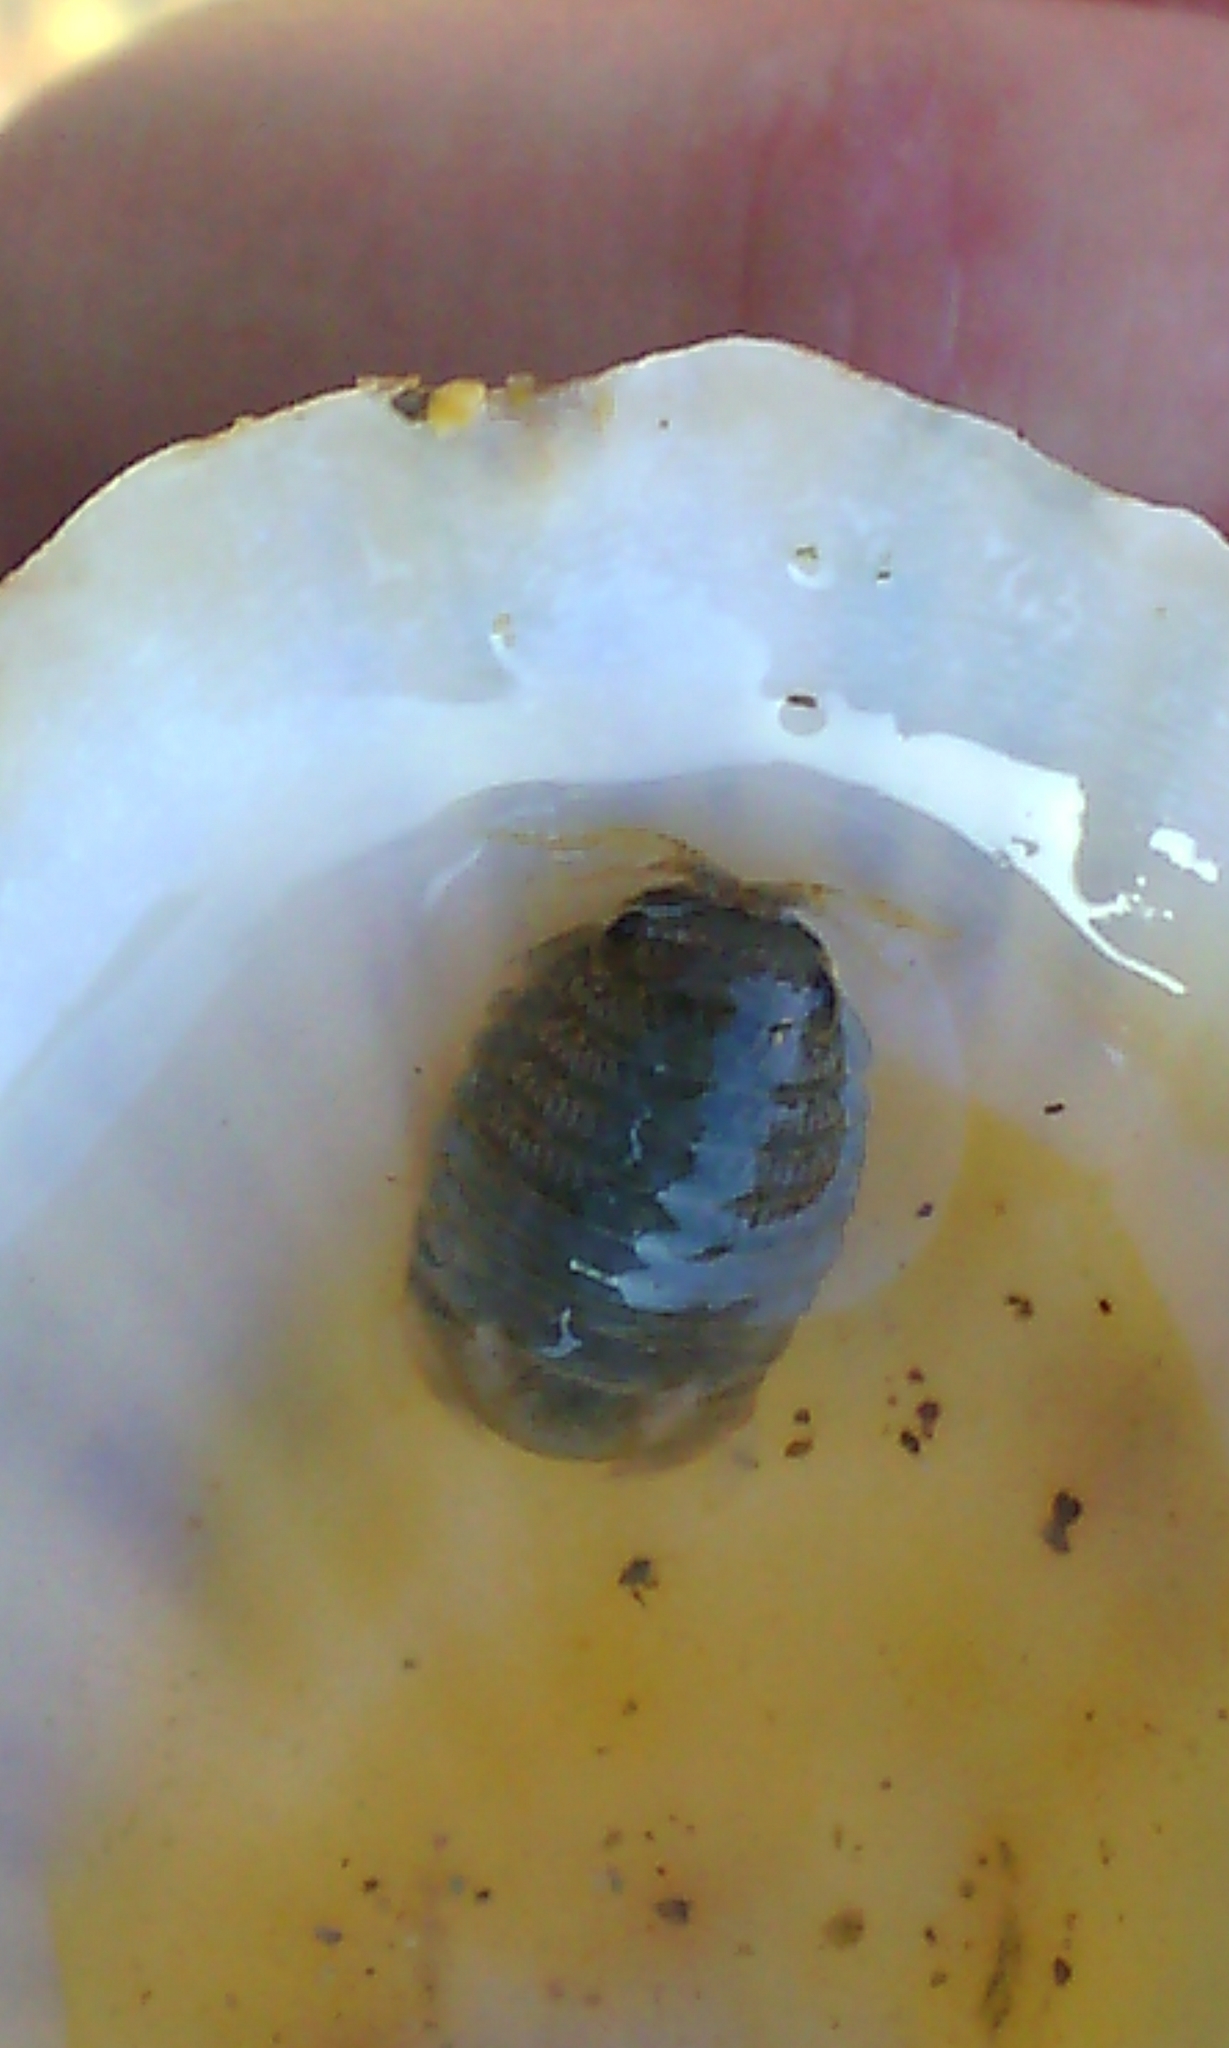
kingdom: Animalia
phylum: Arthropoda
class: Malacostraca
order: Isopoda
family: Sphaeromatidae
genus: Sphaeroma
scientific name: Sphaeroma serratum
